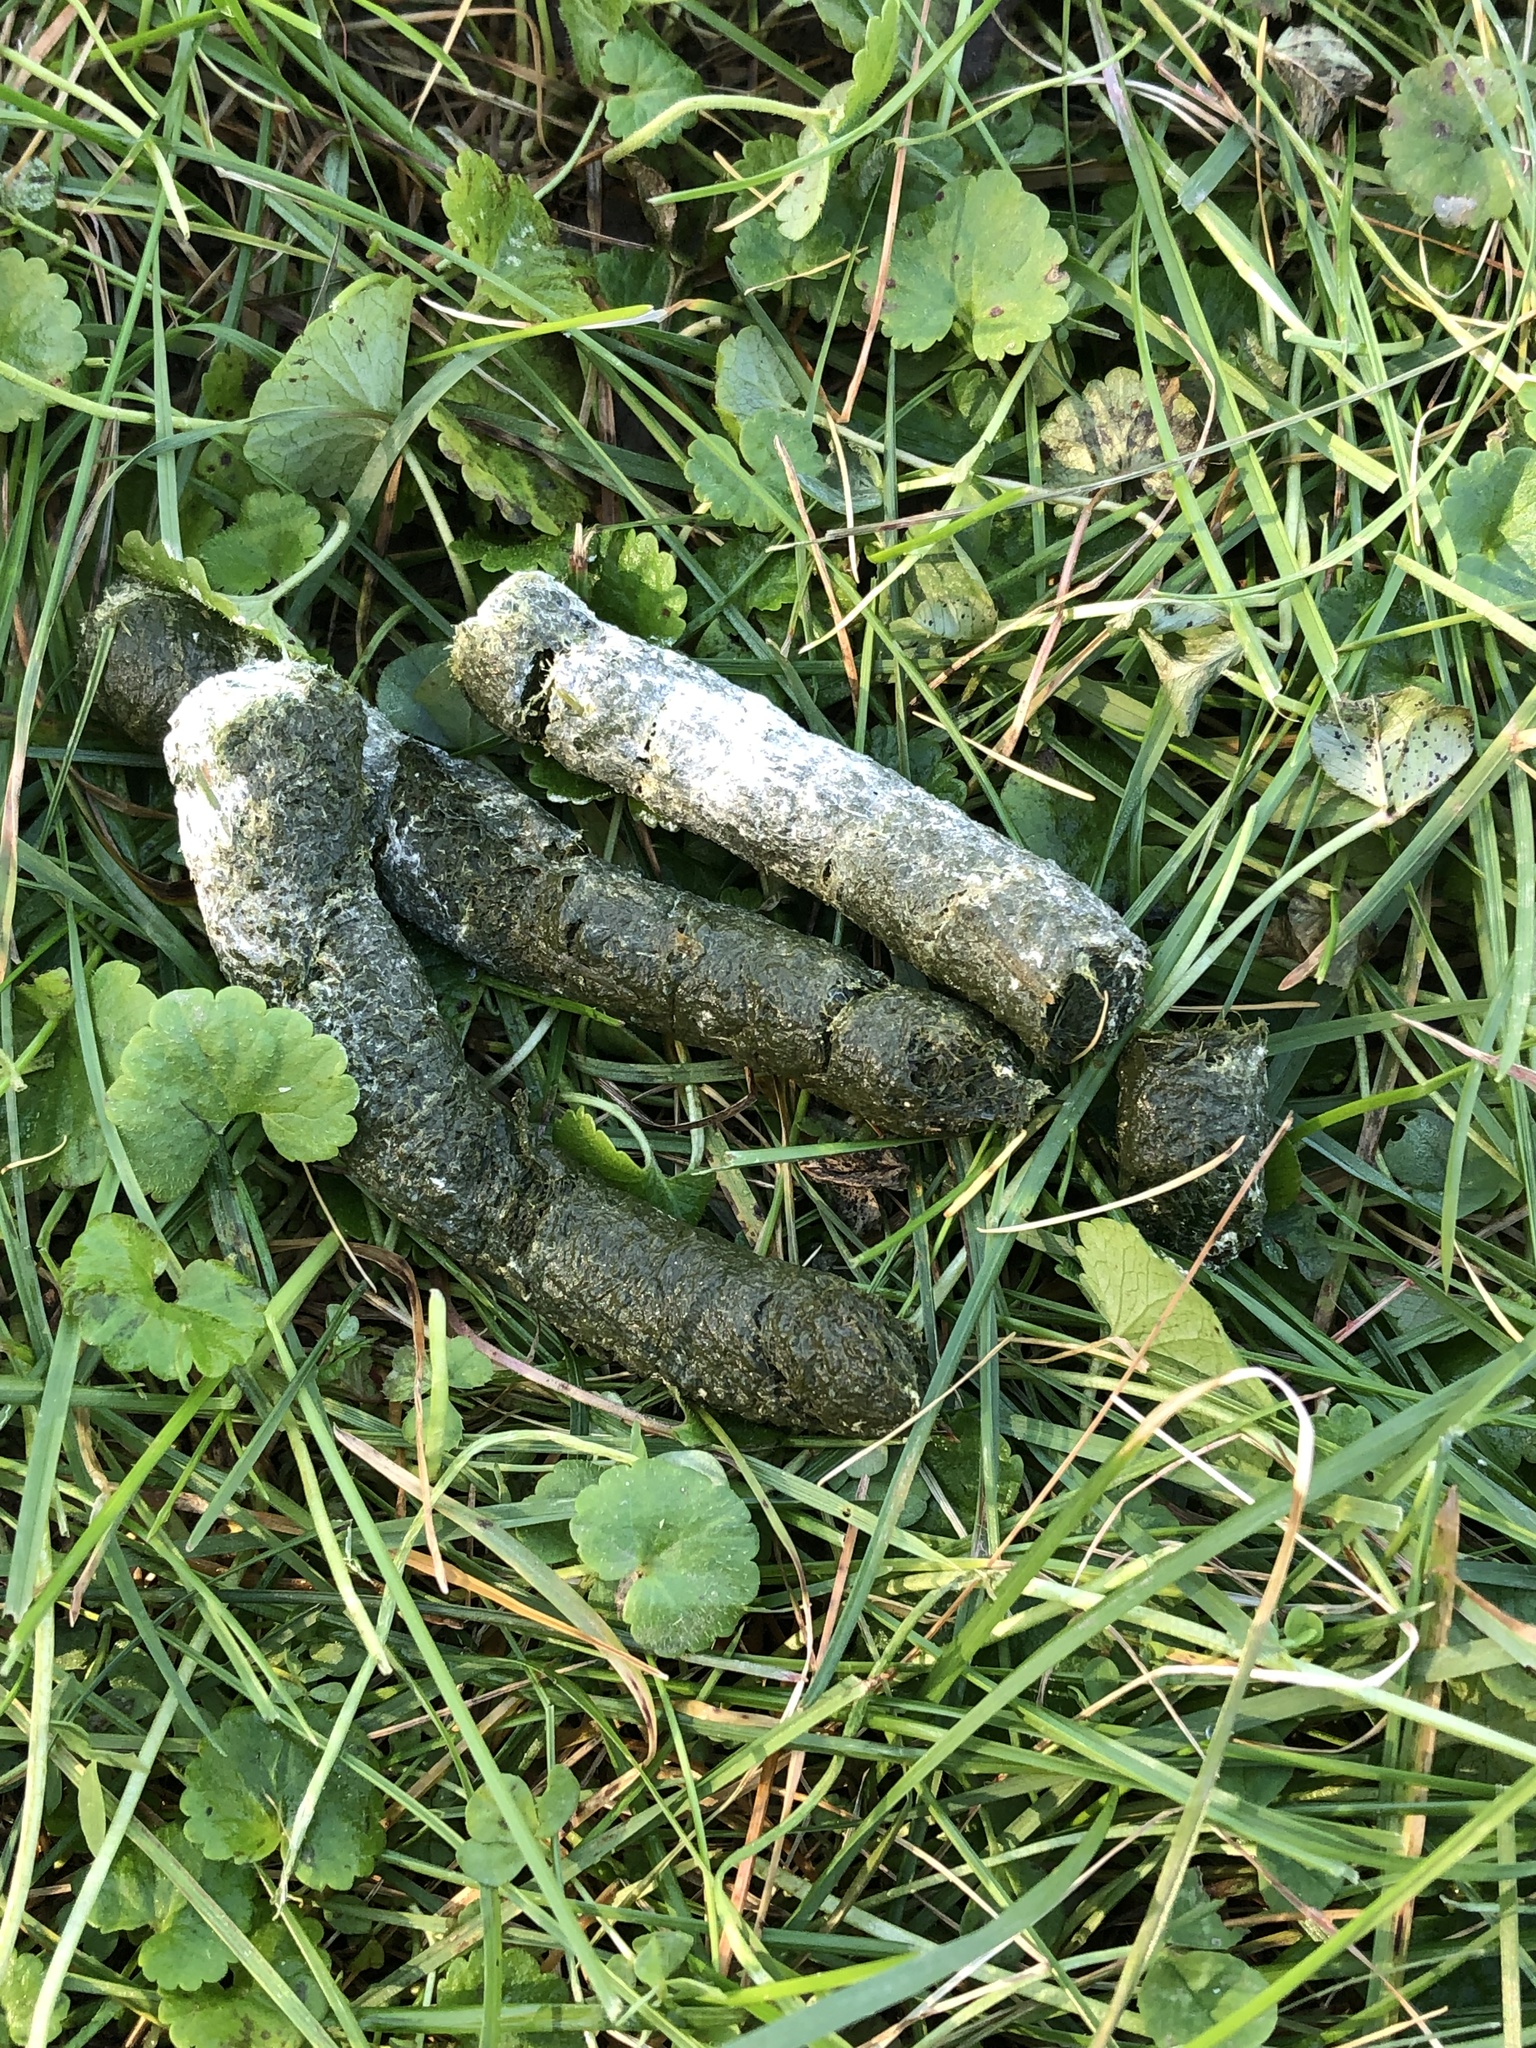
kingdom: Animalia
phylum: Chordata
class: Aves
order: Anseriformes
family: Anatidae
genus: Branta
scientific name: Branta canadensis
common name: Canada goose
